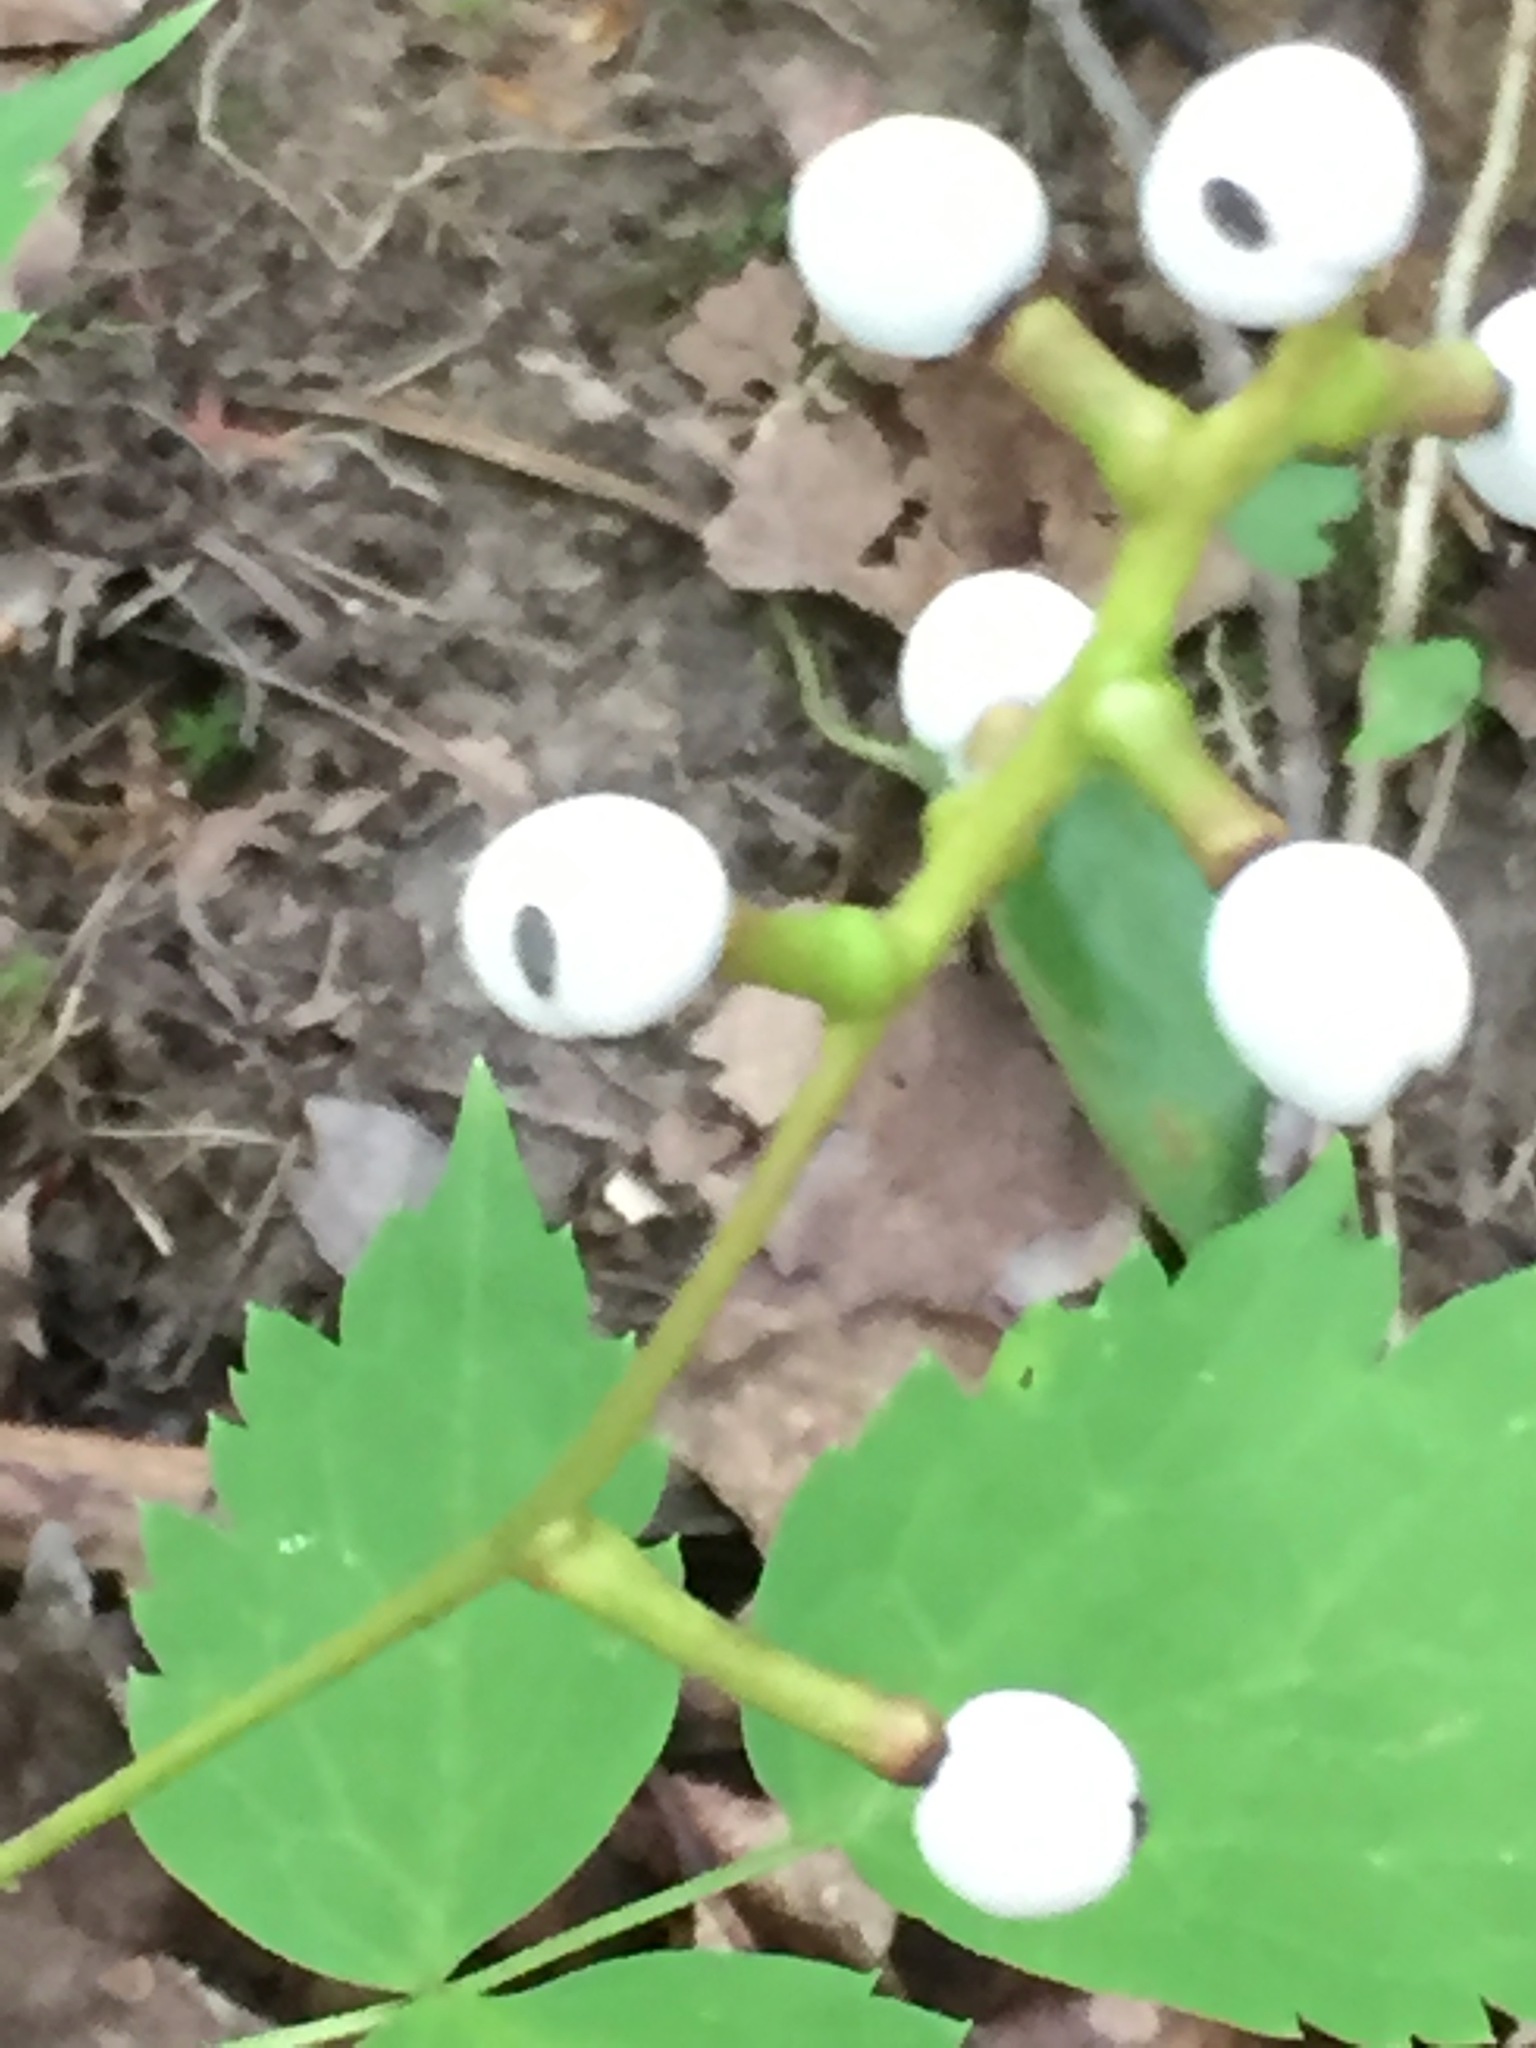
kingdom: Plantae
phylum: Tracheophyta
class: Magnoliopsida
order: Ranunculales
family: Ranunculaceae
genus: Actaea
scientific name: Actaea pachypoda
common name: Doll's-eyes
